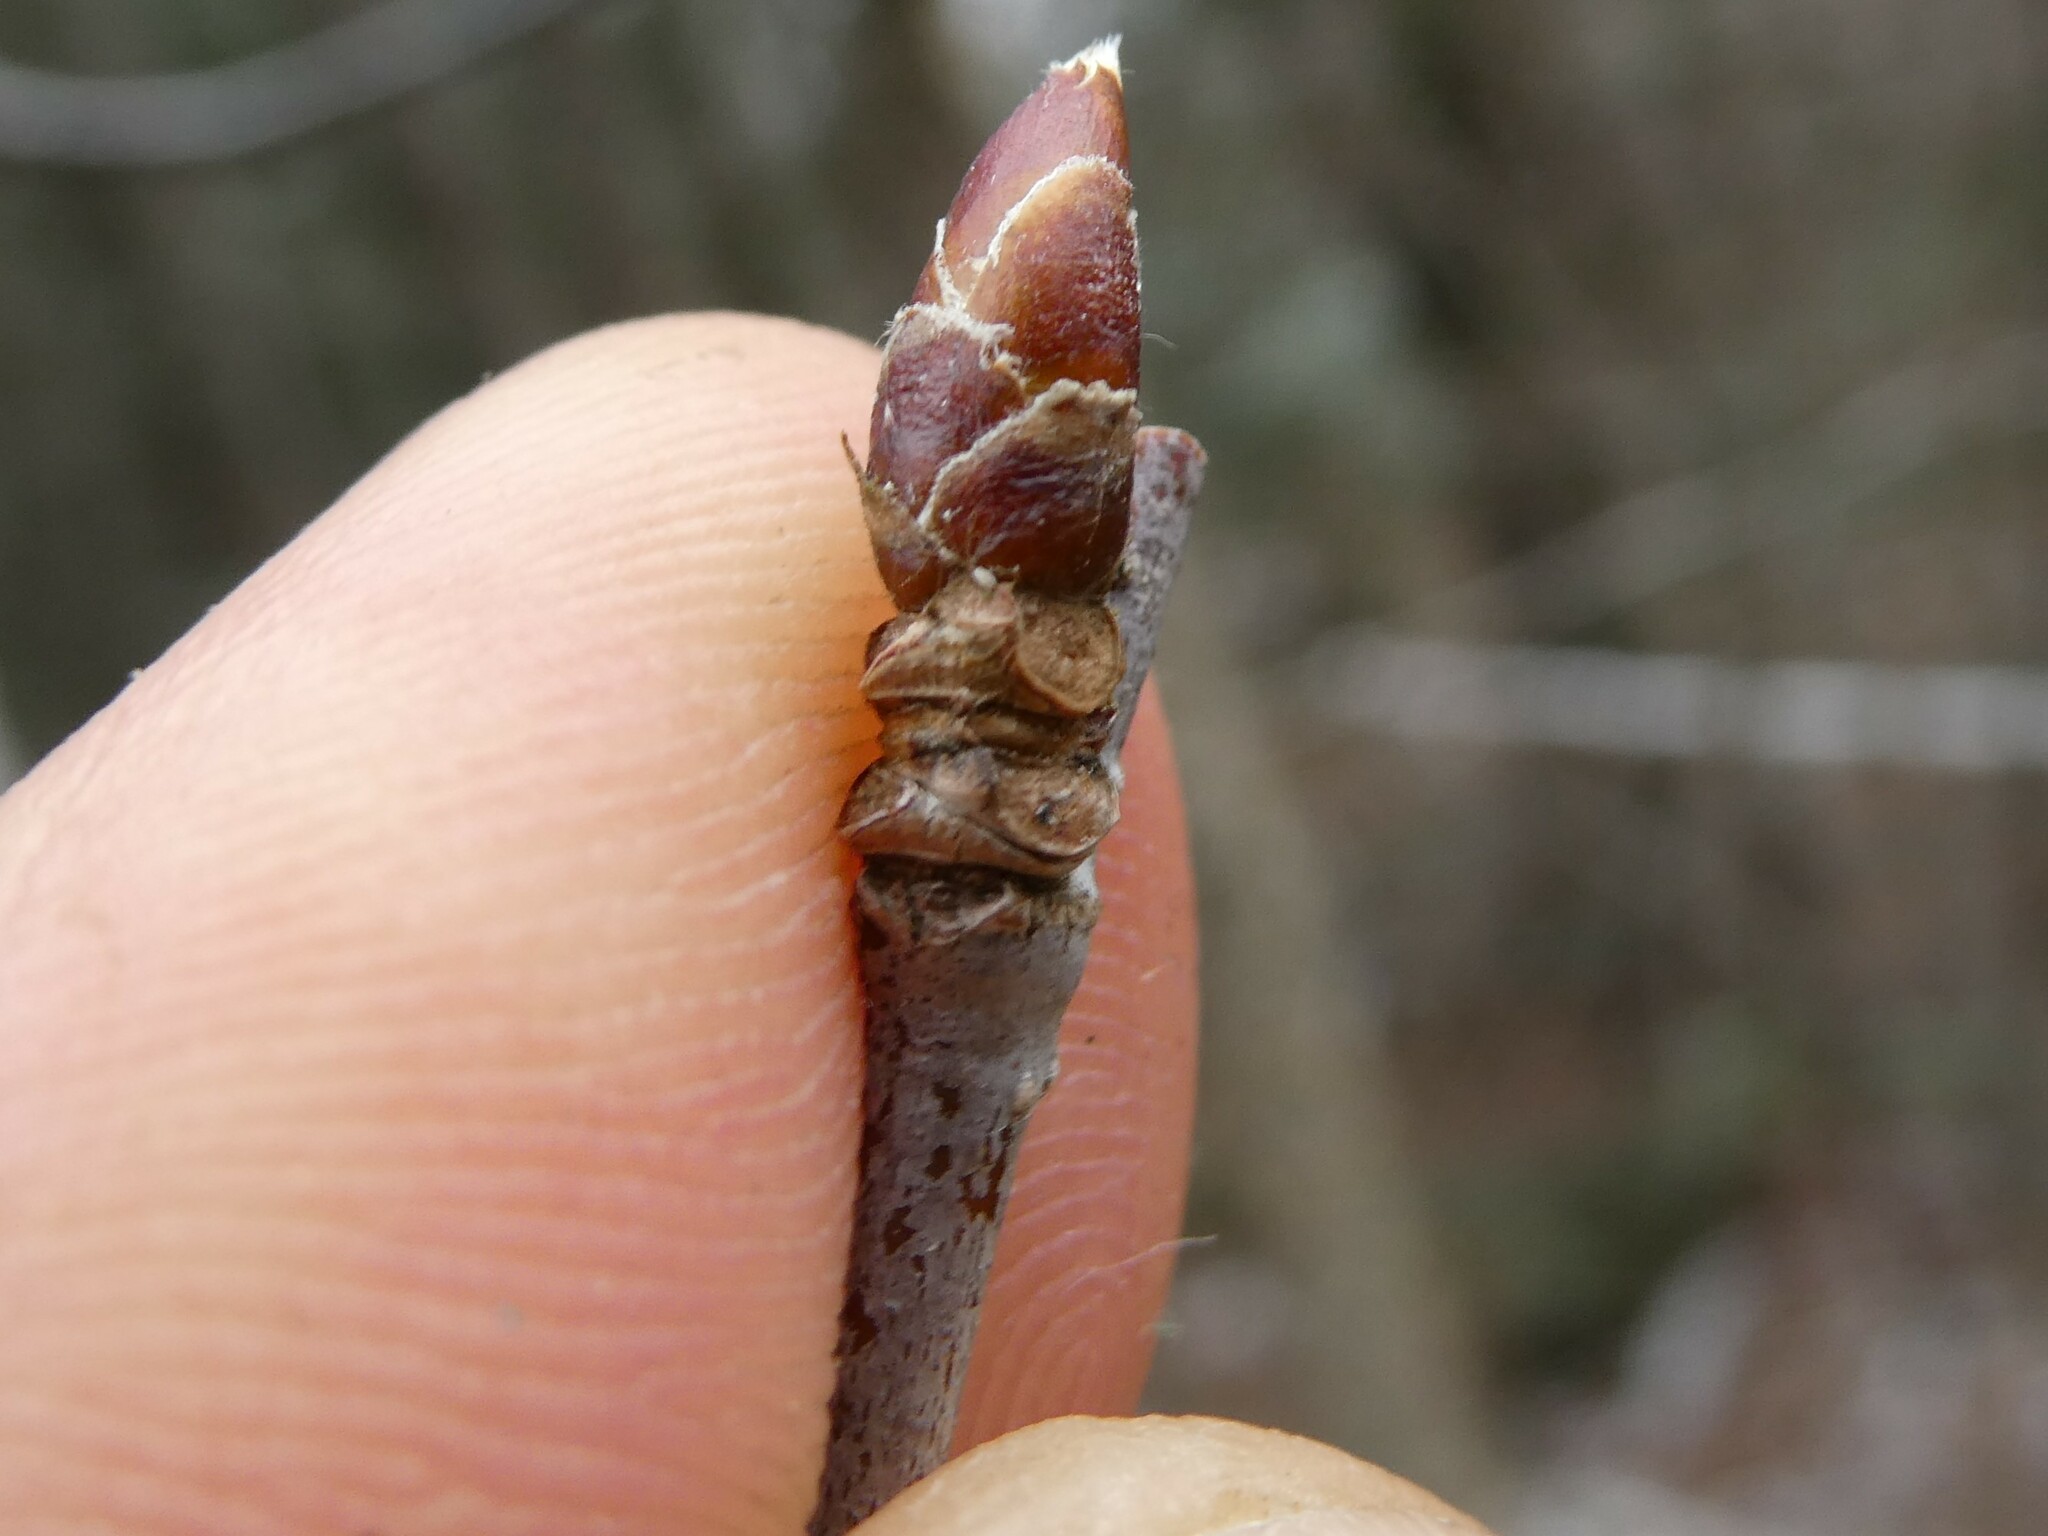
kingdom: Plantae
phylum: Tracheophyta
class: Magnoliopsida
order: Fagales
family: Betulaceae
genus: Betula
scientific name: Betula alleghaniensis
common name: Yellow birch
